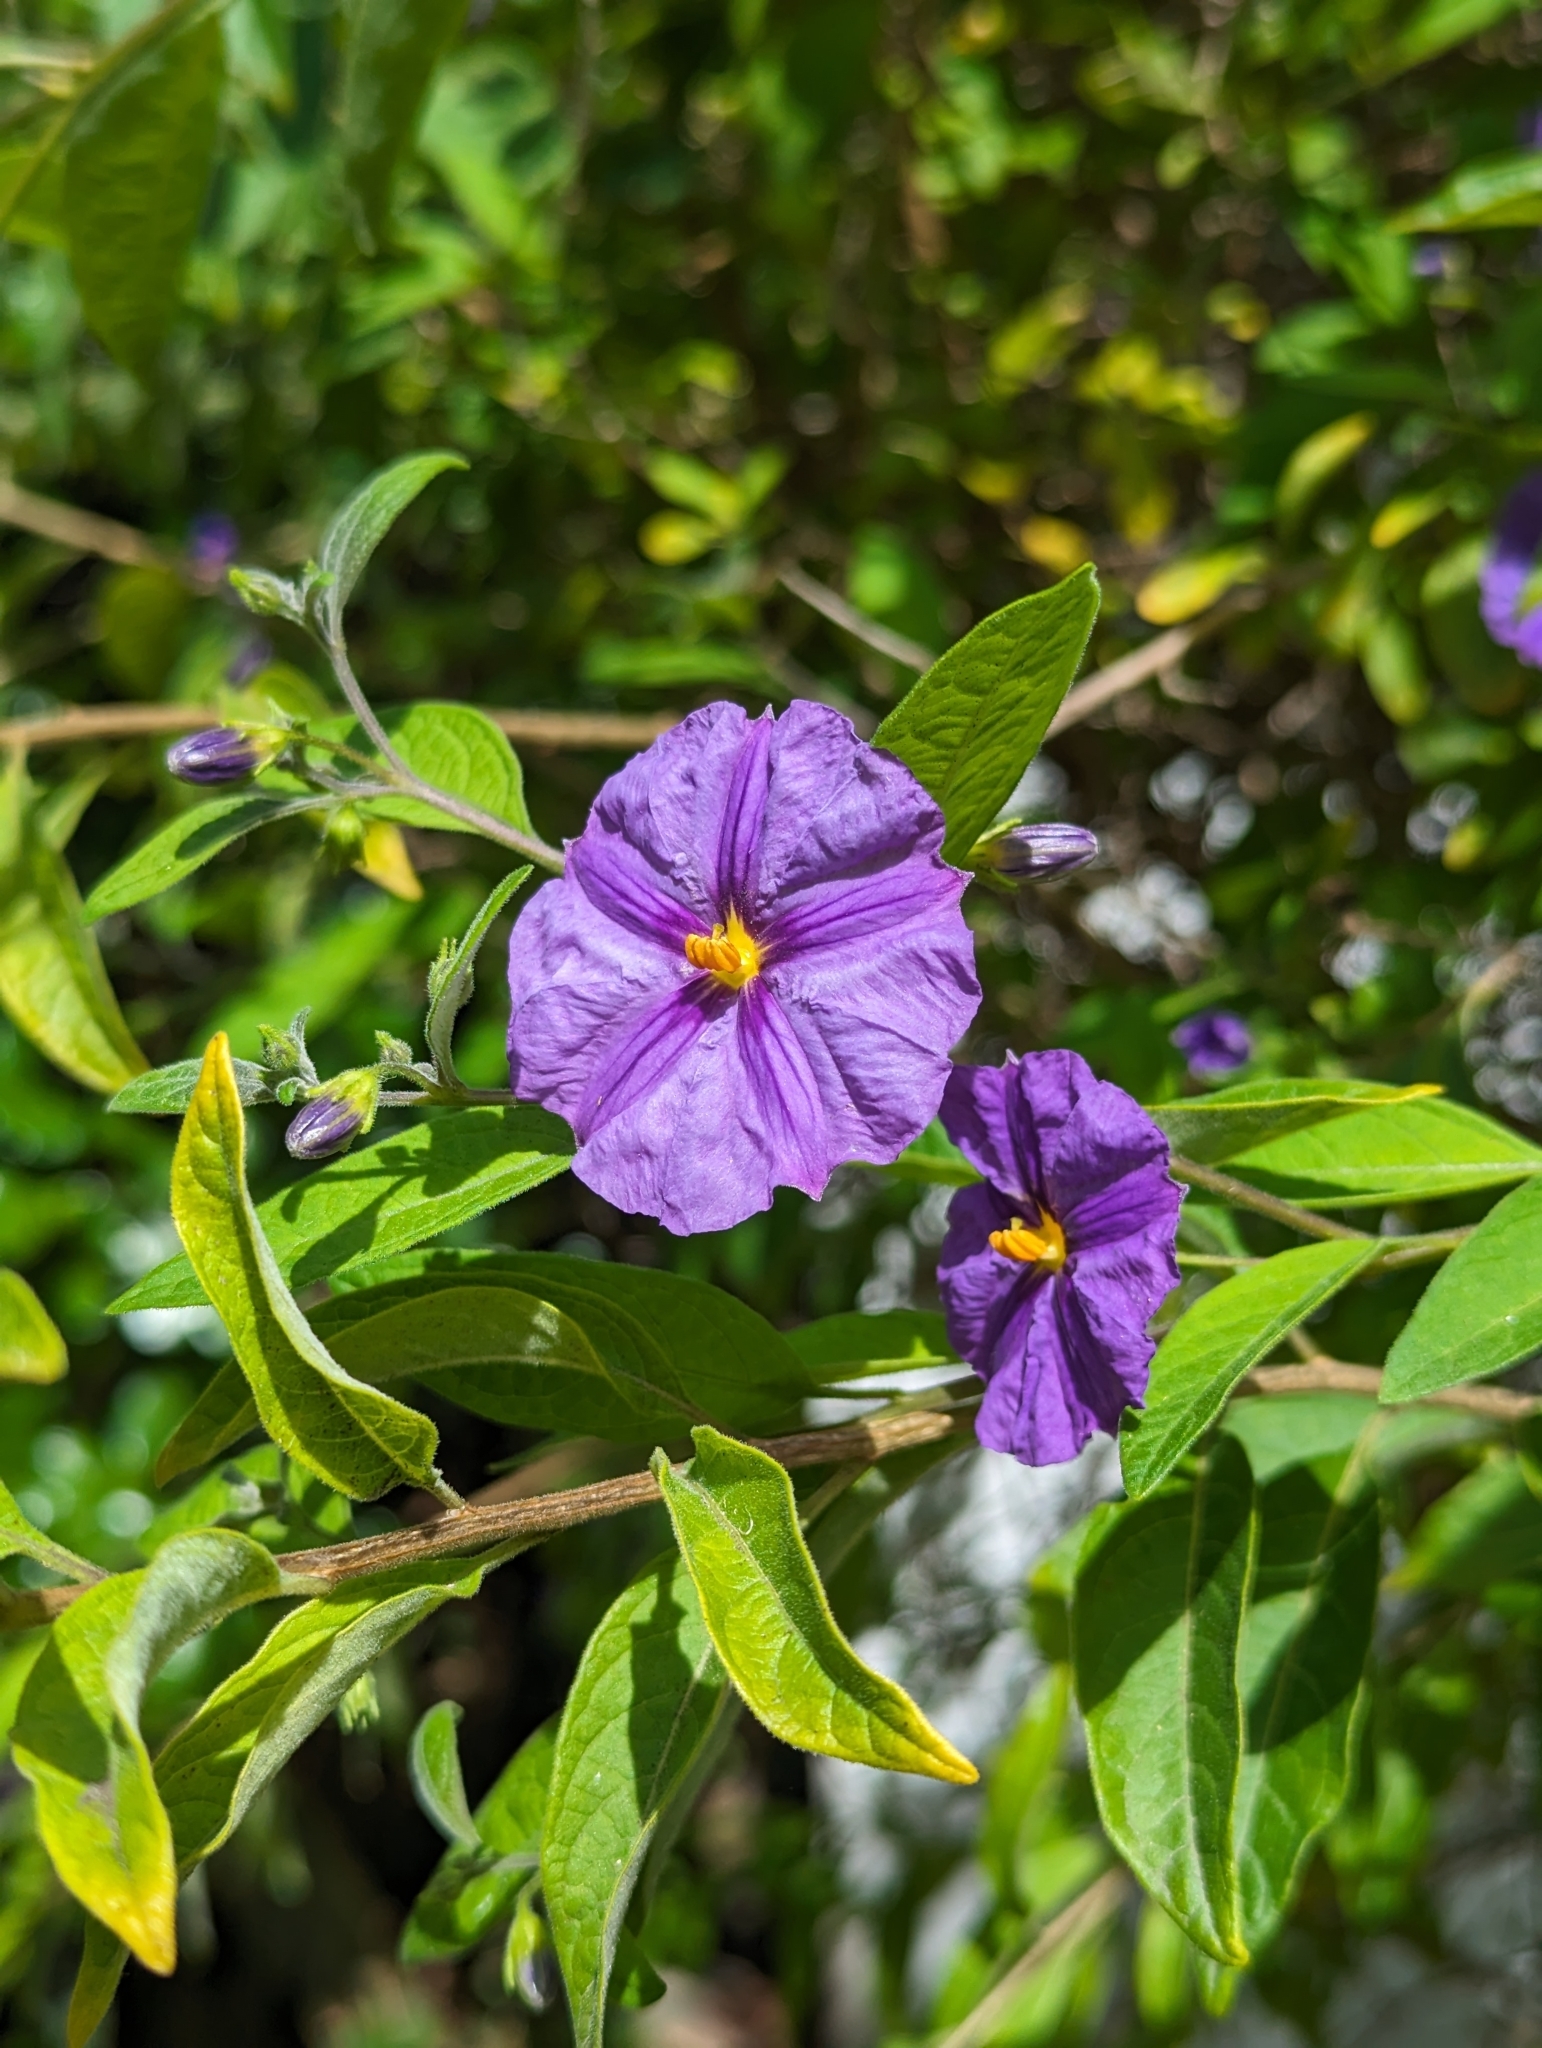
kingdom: Plantae
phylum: Tracheophyta
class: Magnoliopsida
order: Solanales
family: Solanaceae
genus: Lycianthes
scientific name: Lycianthes rantonnetii
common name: Blue potatobush
